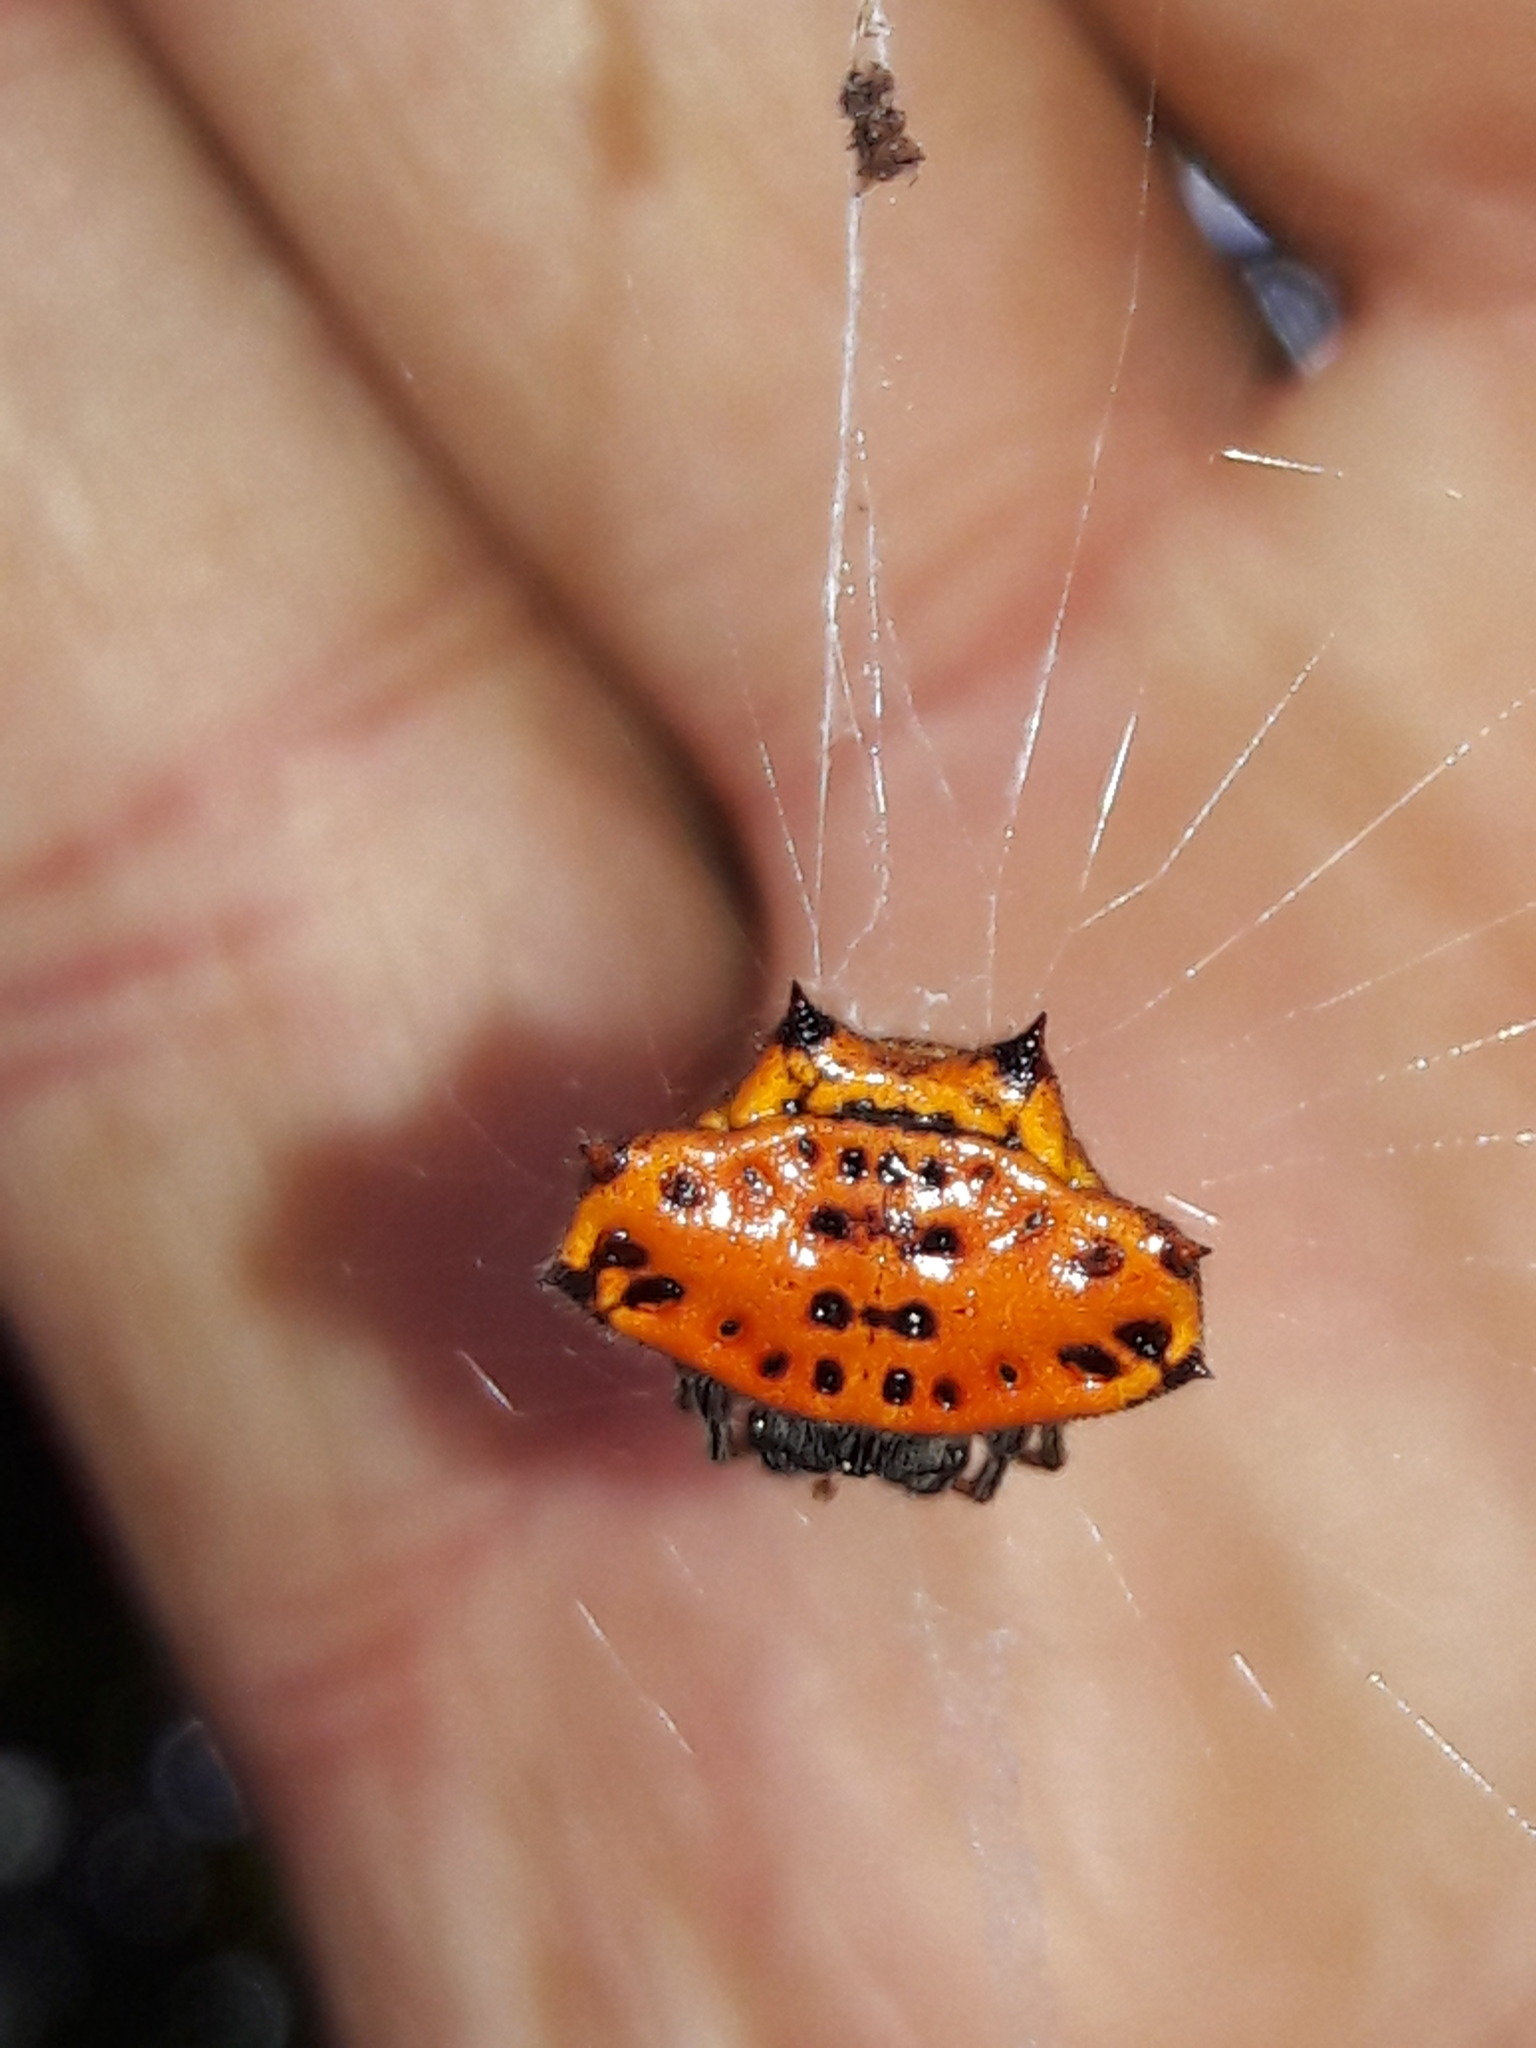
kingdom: Animalia
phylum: Arthropoda
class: Arachnida
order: Araneae
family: Araneidae
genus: Gasteracantha
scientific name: Gasteracantha cancriformis
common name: Orb weavers
